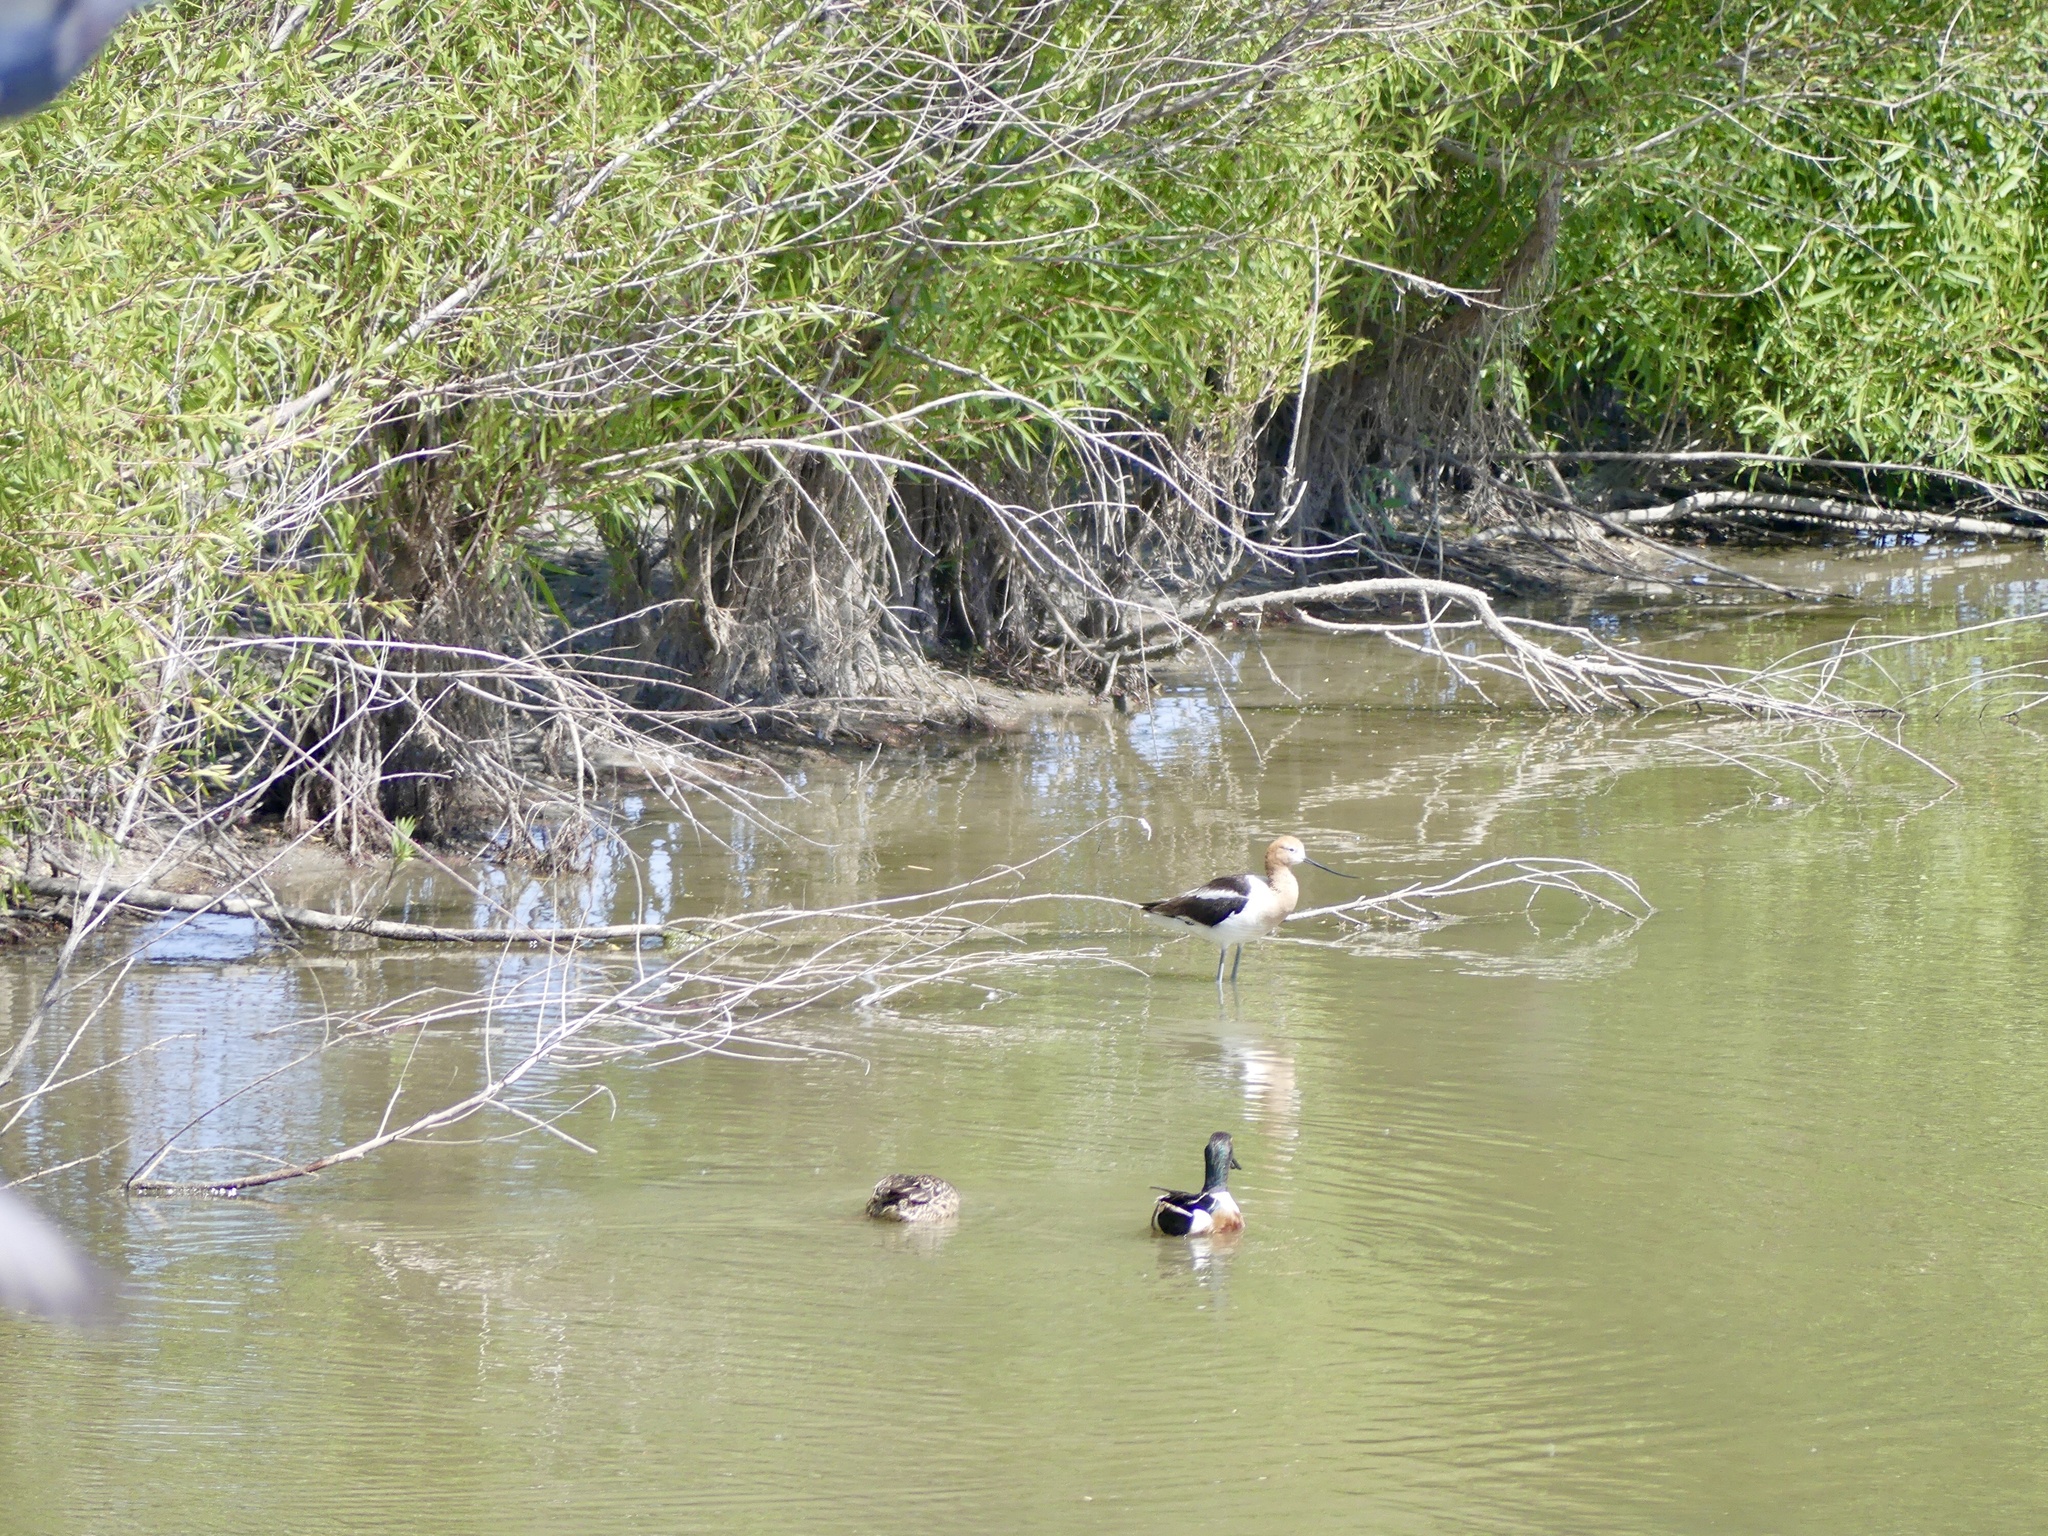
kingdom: Animalia
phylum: Chordata
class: Aves
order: Anseriformes
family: Anatidae
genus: Spatula
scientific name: Spatula clypeata
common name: Northern shoveler
